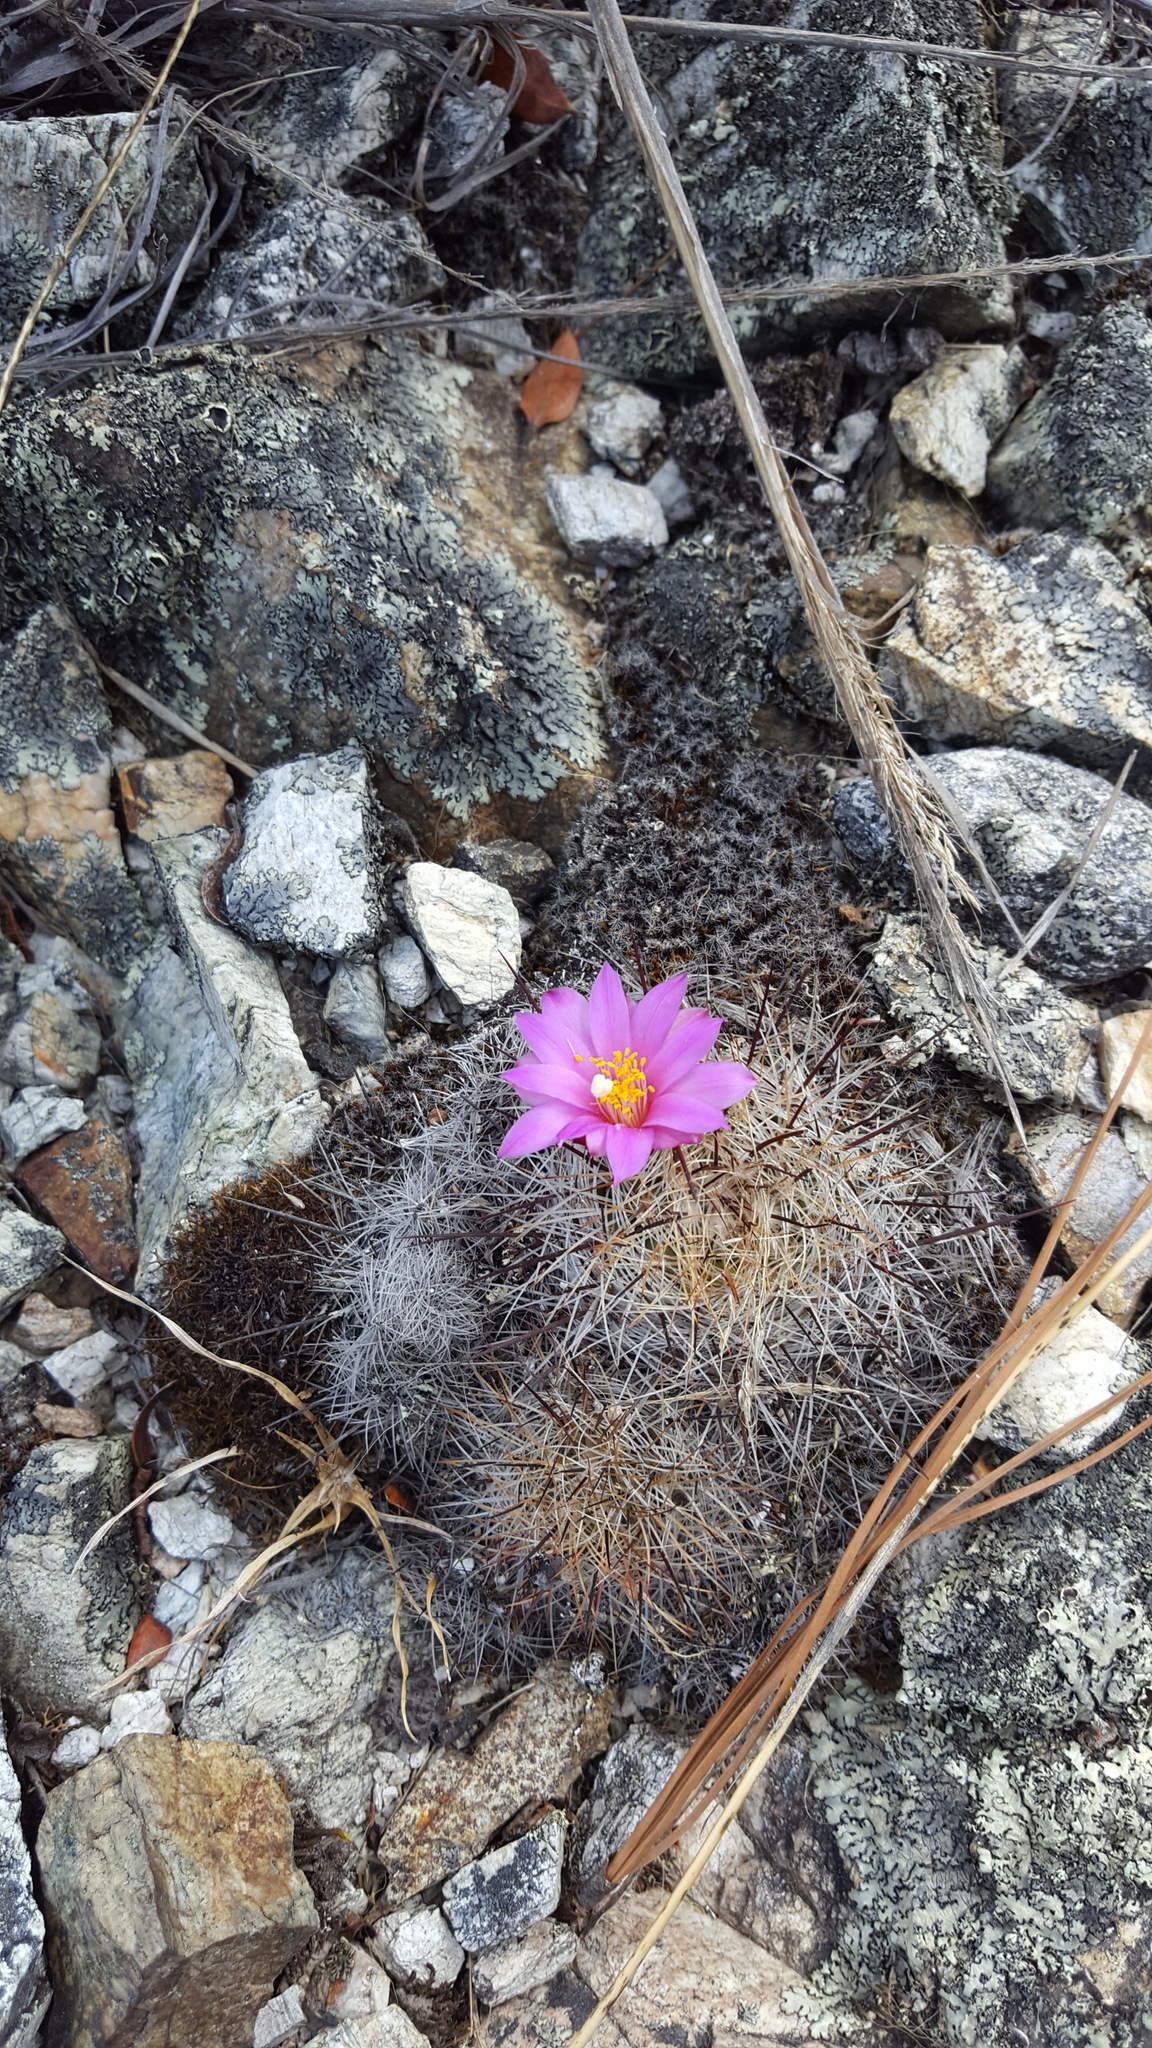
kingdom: Plantae
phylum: Tracheophyta
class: Magnoliopsida
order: Caryophyllales
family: Cactaceae
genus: Mammillaria
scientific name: Mammillaria deherdtiana
